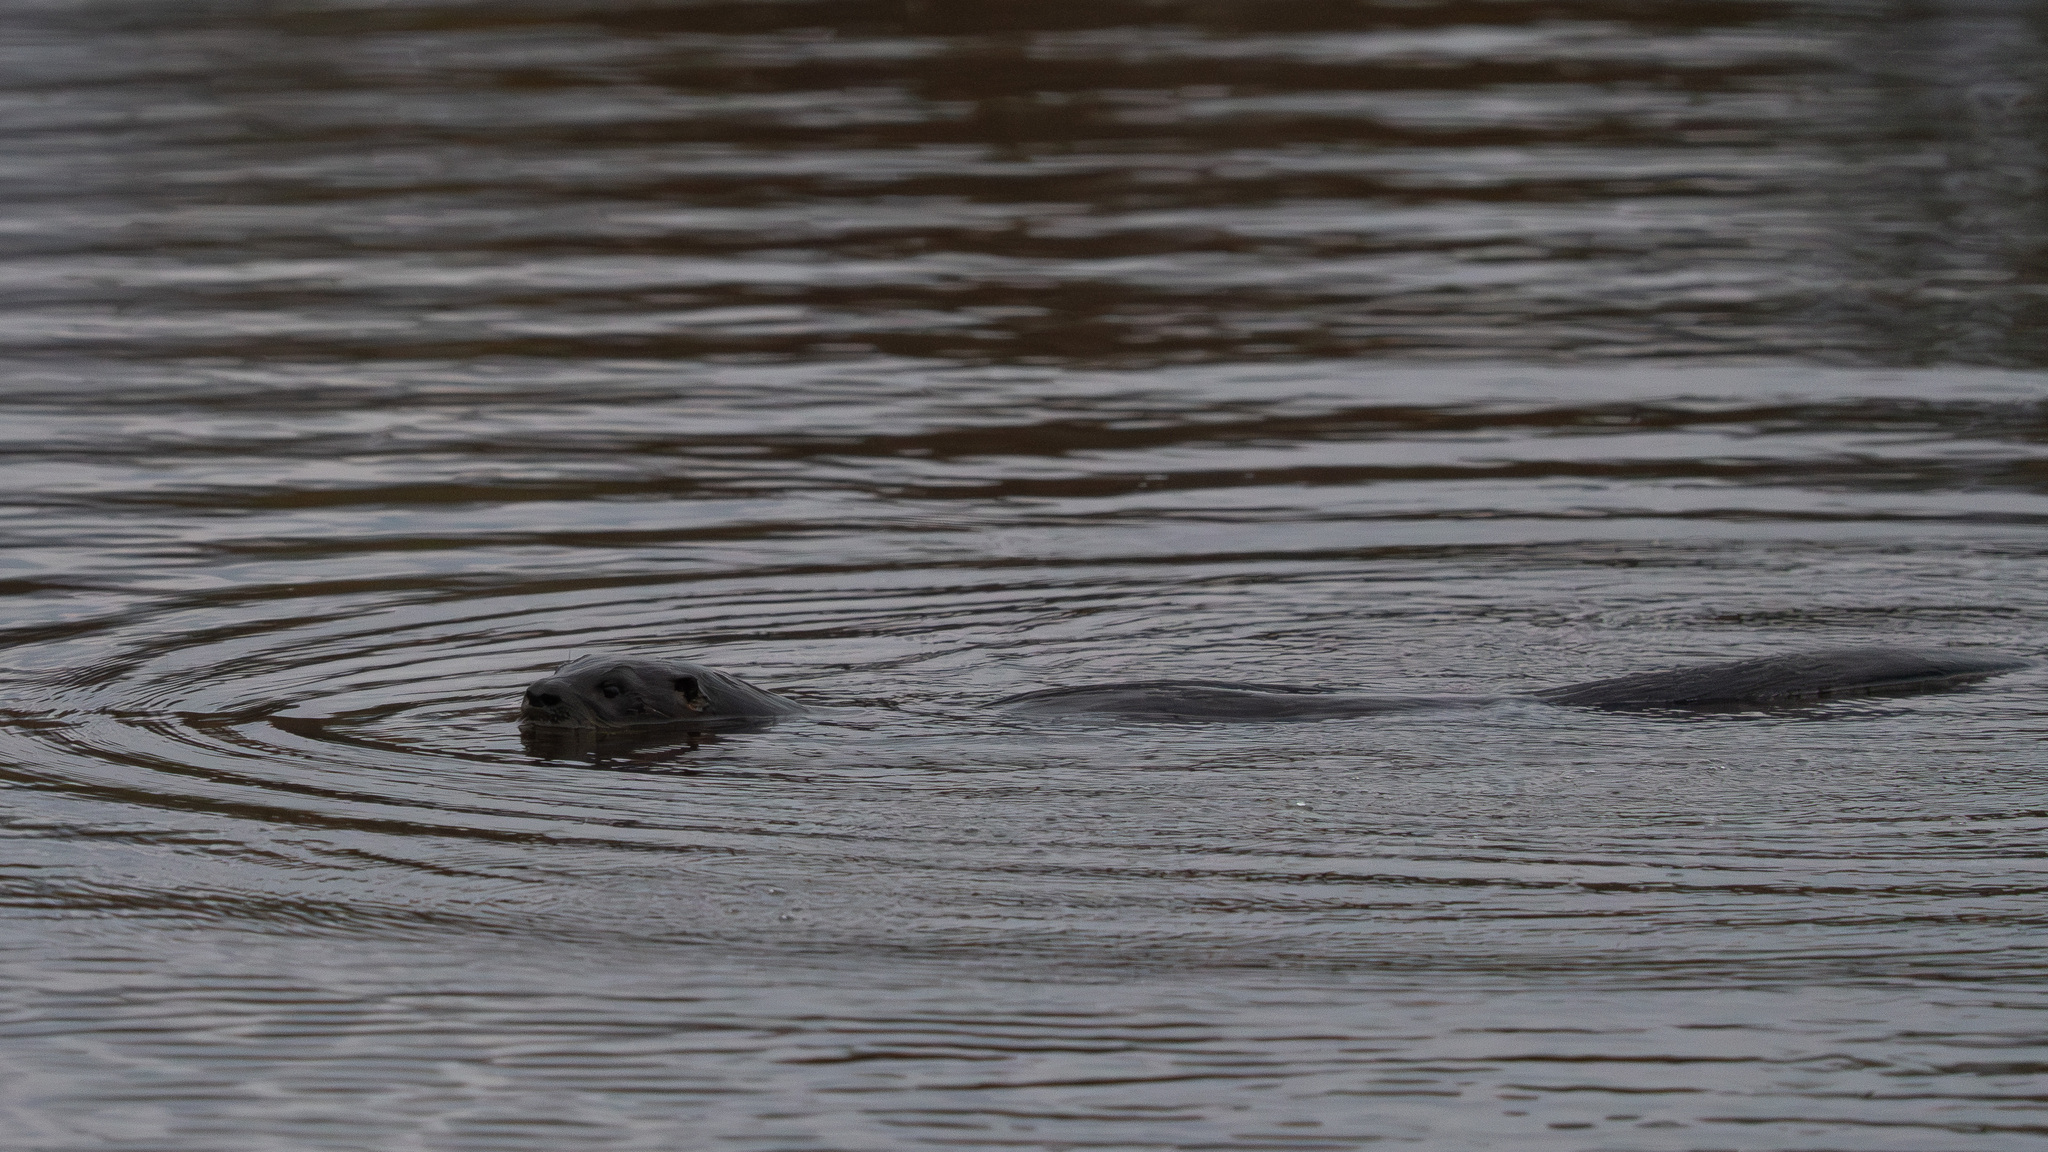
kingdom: Animalia
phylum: Chordata
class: Mammalia
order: Carnivora
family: Mustelidae
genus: Lontra
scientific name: Lontra canadensis
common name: North american river otter
